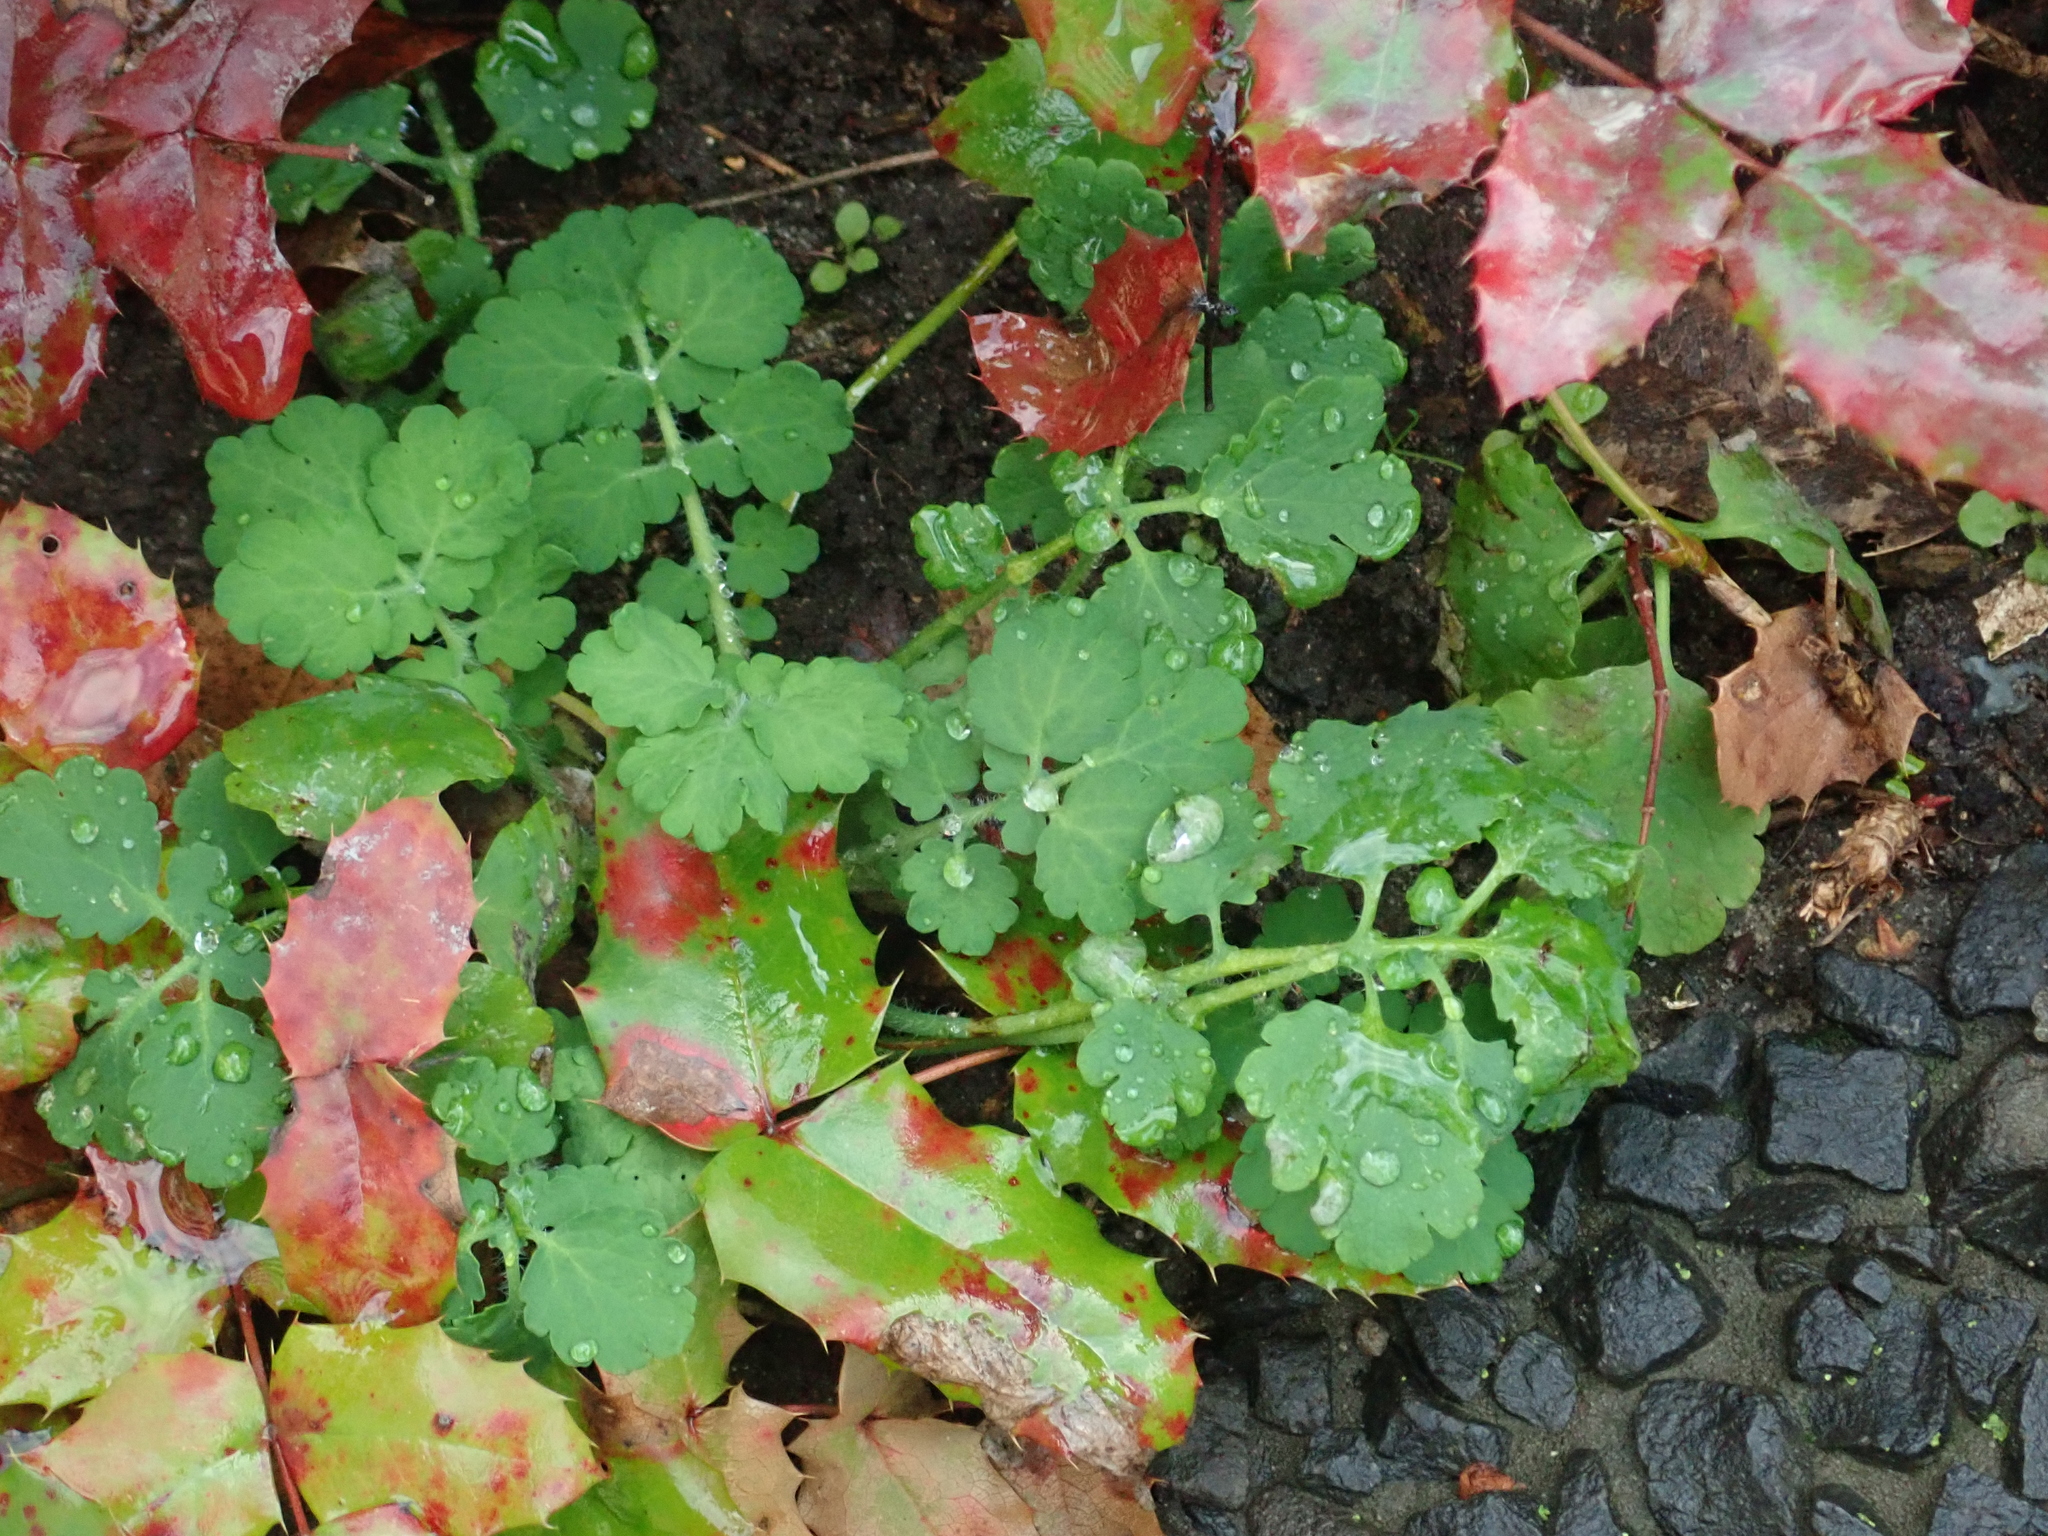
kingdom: Plantae
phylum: Tracheophyta
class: Magnoliopsida
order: Ranunculales
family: Papaveraceae
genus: Chelidonium
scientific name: Chelidonium majus
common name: Greater celandine
